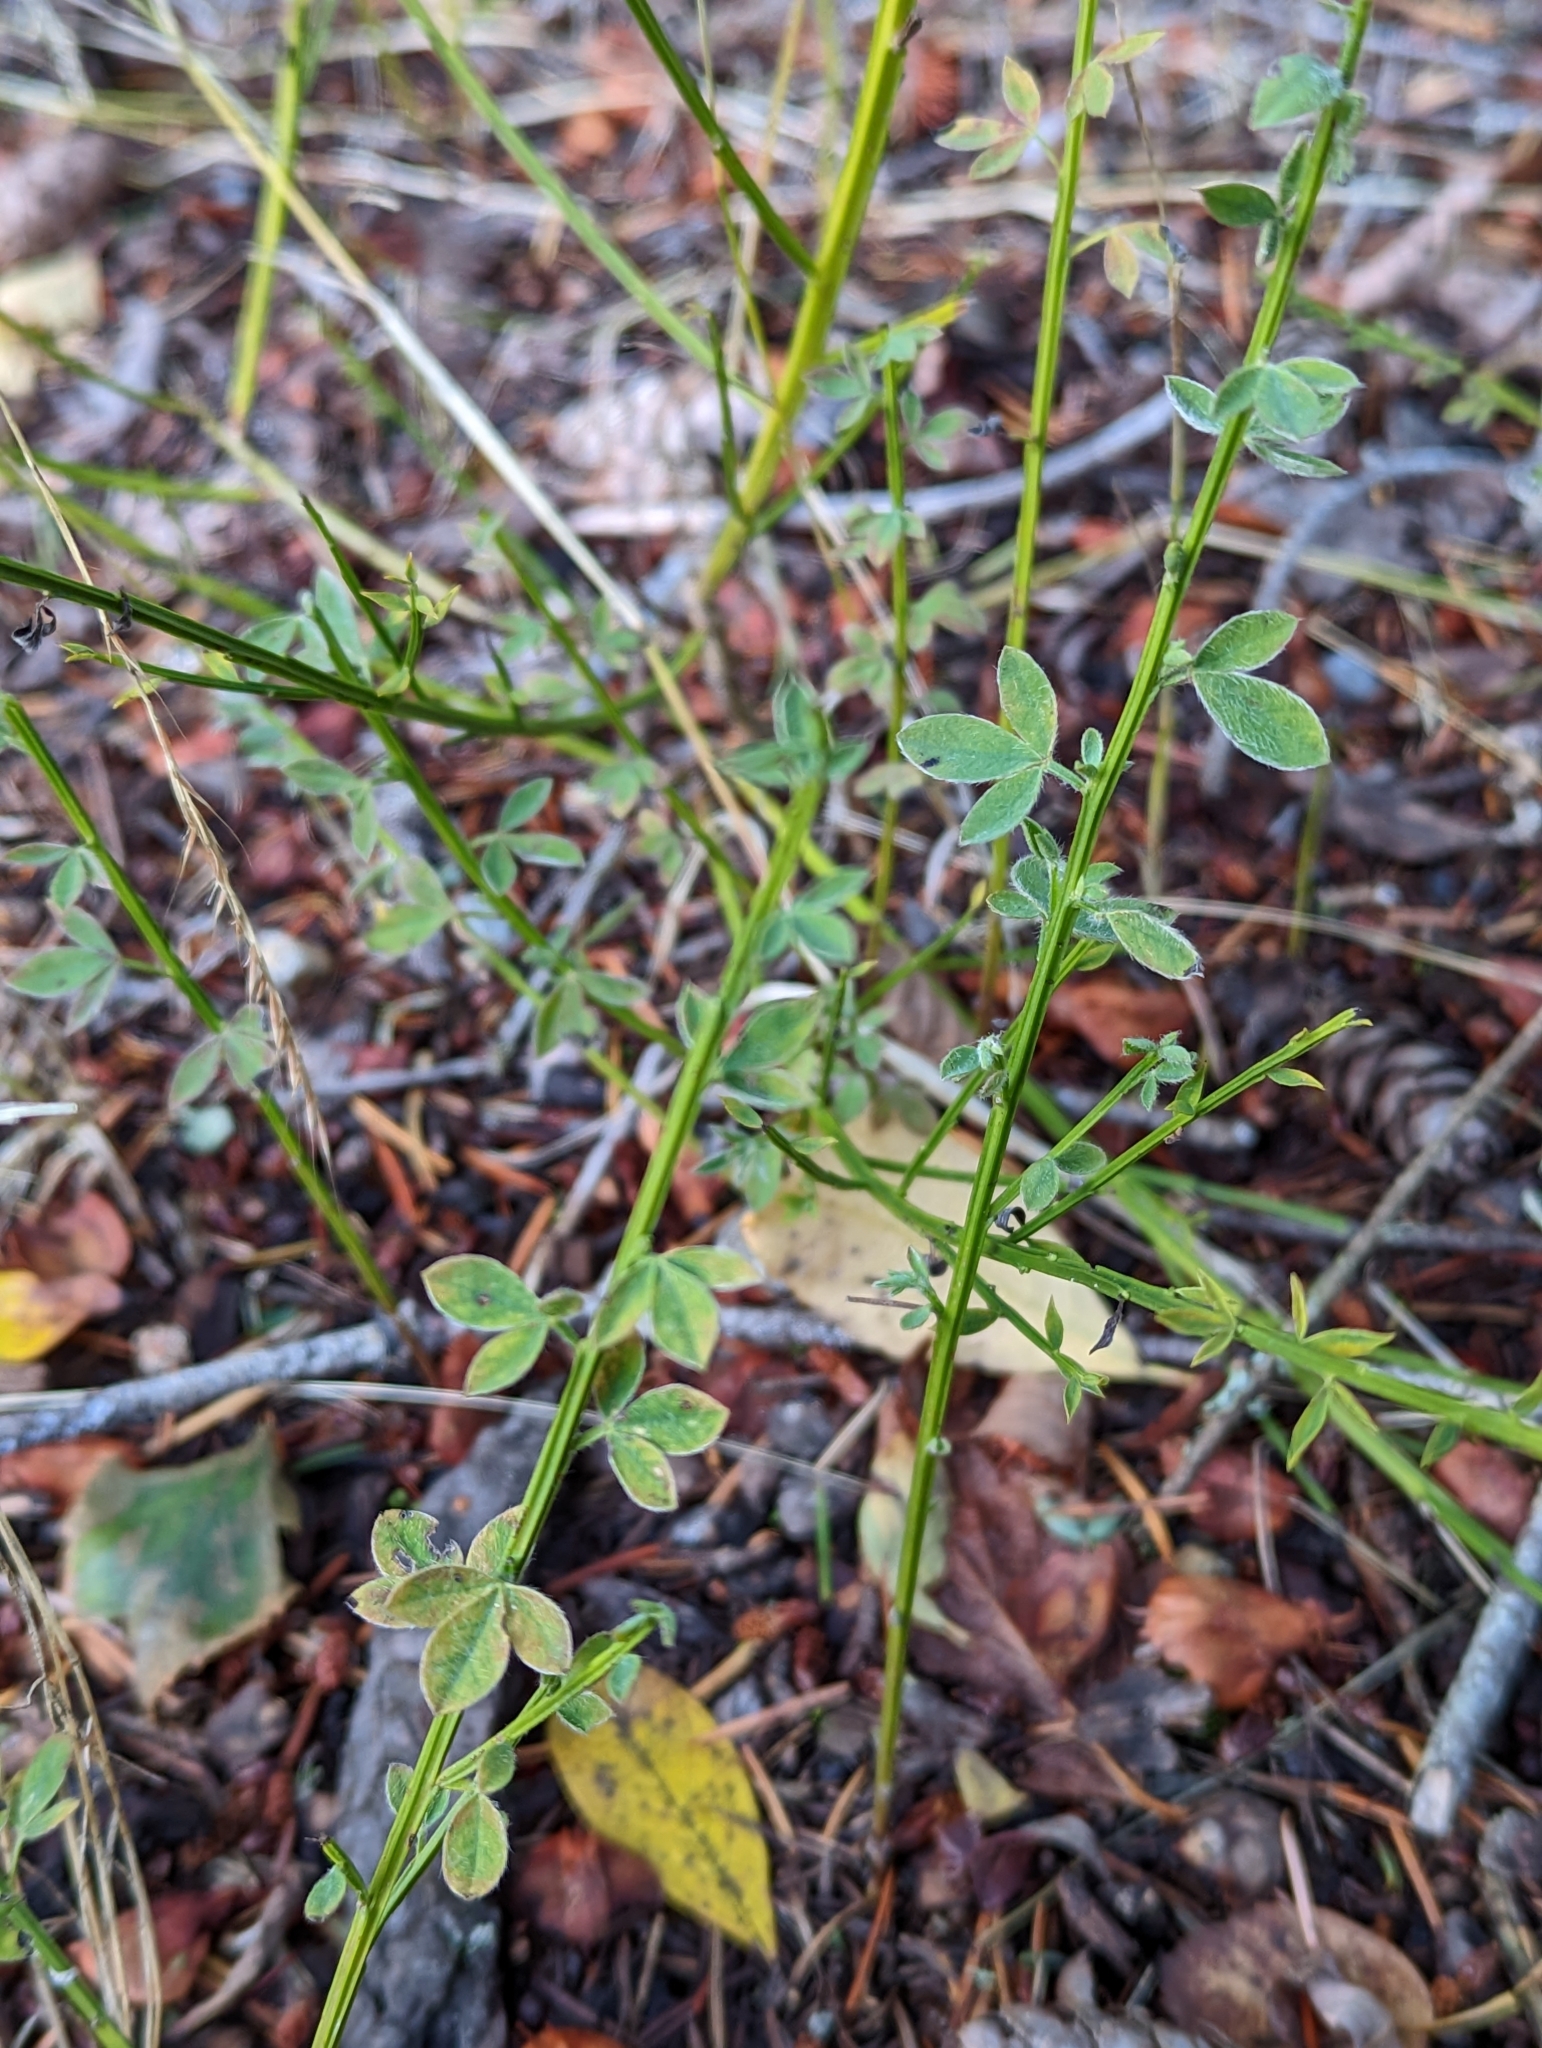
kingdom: Plantae
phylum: Tracheophyta
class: Magnoliopsida
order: Fabales
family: Fabaceae
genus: Cytisus
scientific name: Cytisus scoparius
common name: Scotch broom
